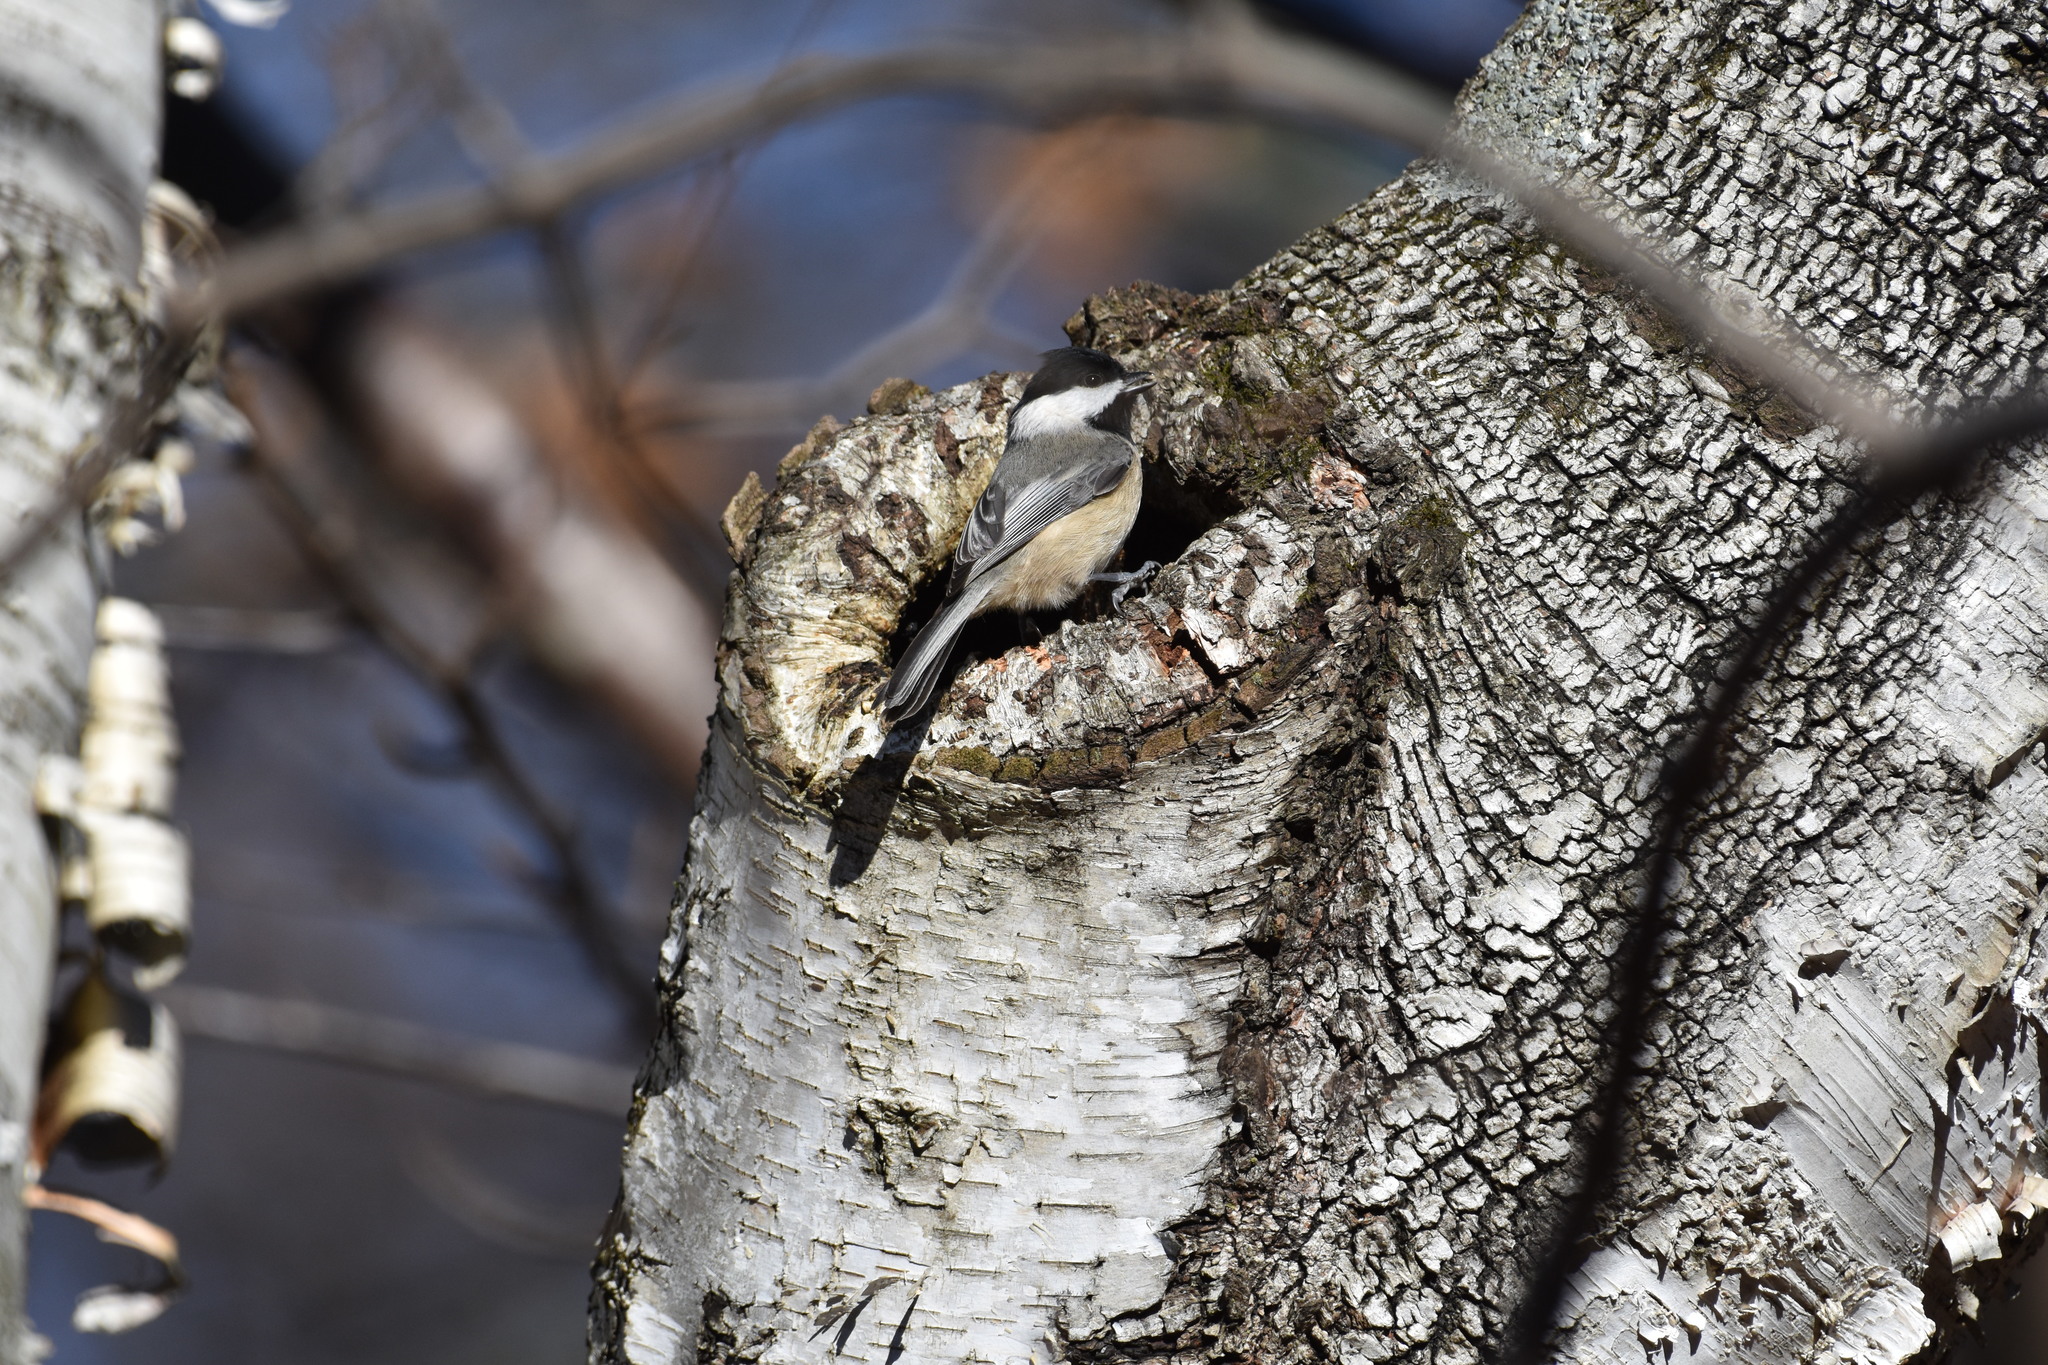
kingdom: Animalia
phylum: Chordata
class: Aves
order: Passeriformes
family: Paridae
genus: Poecile
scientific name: Poecile carolinensis
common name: Carolina chickadee
